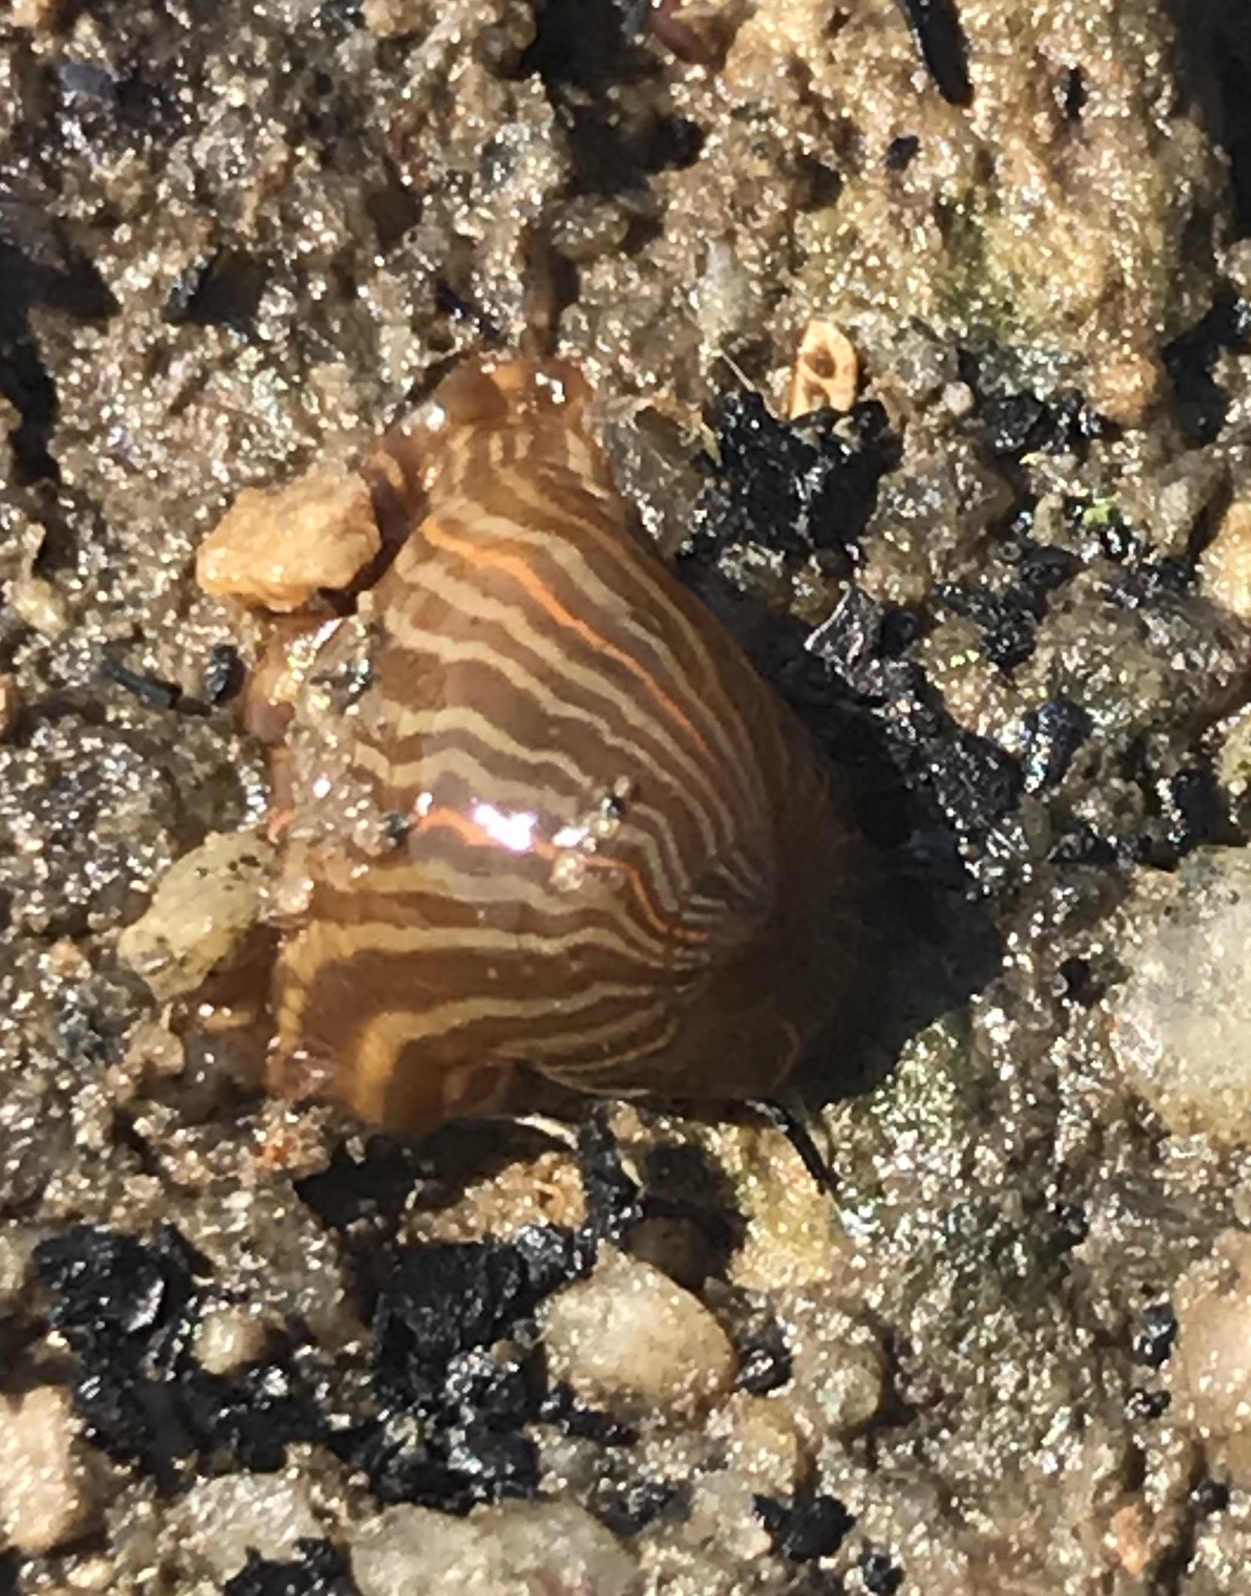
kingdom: Animalia
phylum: Cnidaria
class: Anthozoa
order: Actiniaria
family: Diadumenidae
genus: Diadumene
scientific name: Diadumene lineata
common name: Orange-striped anemone
